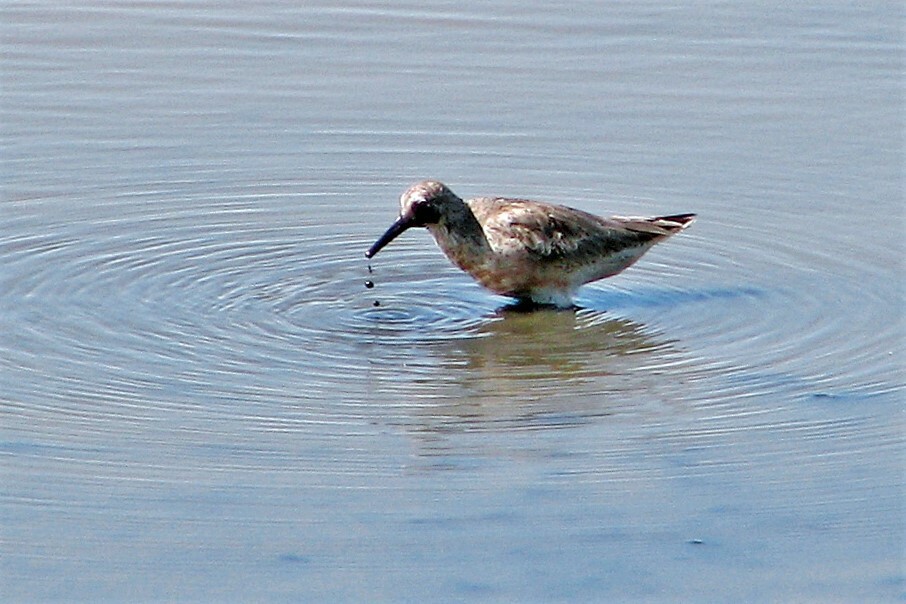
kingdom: Animalia
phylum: Chordata
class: Aves
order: Charadriiformes
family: Scolopacidae
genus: Calidris
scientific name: Calidris canutus
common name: Red knot
